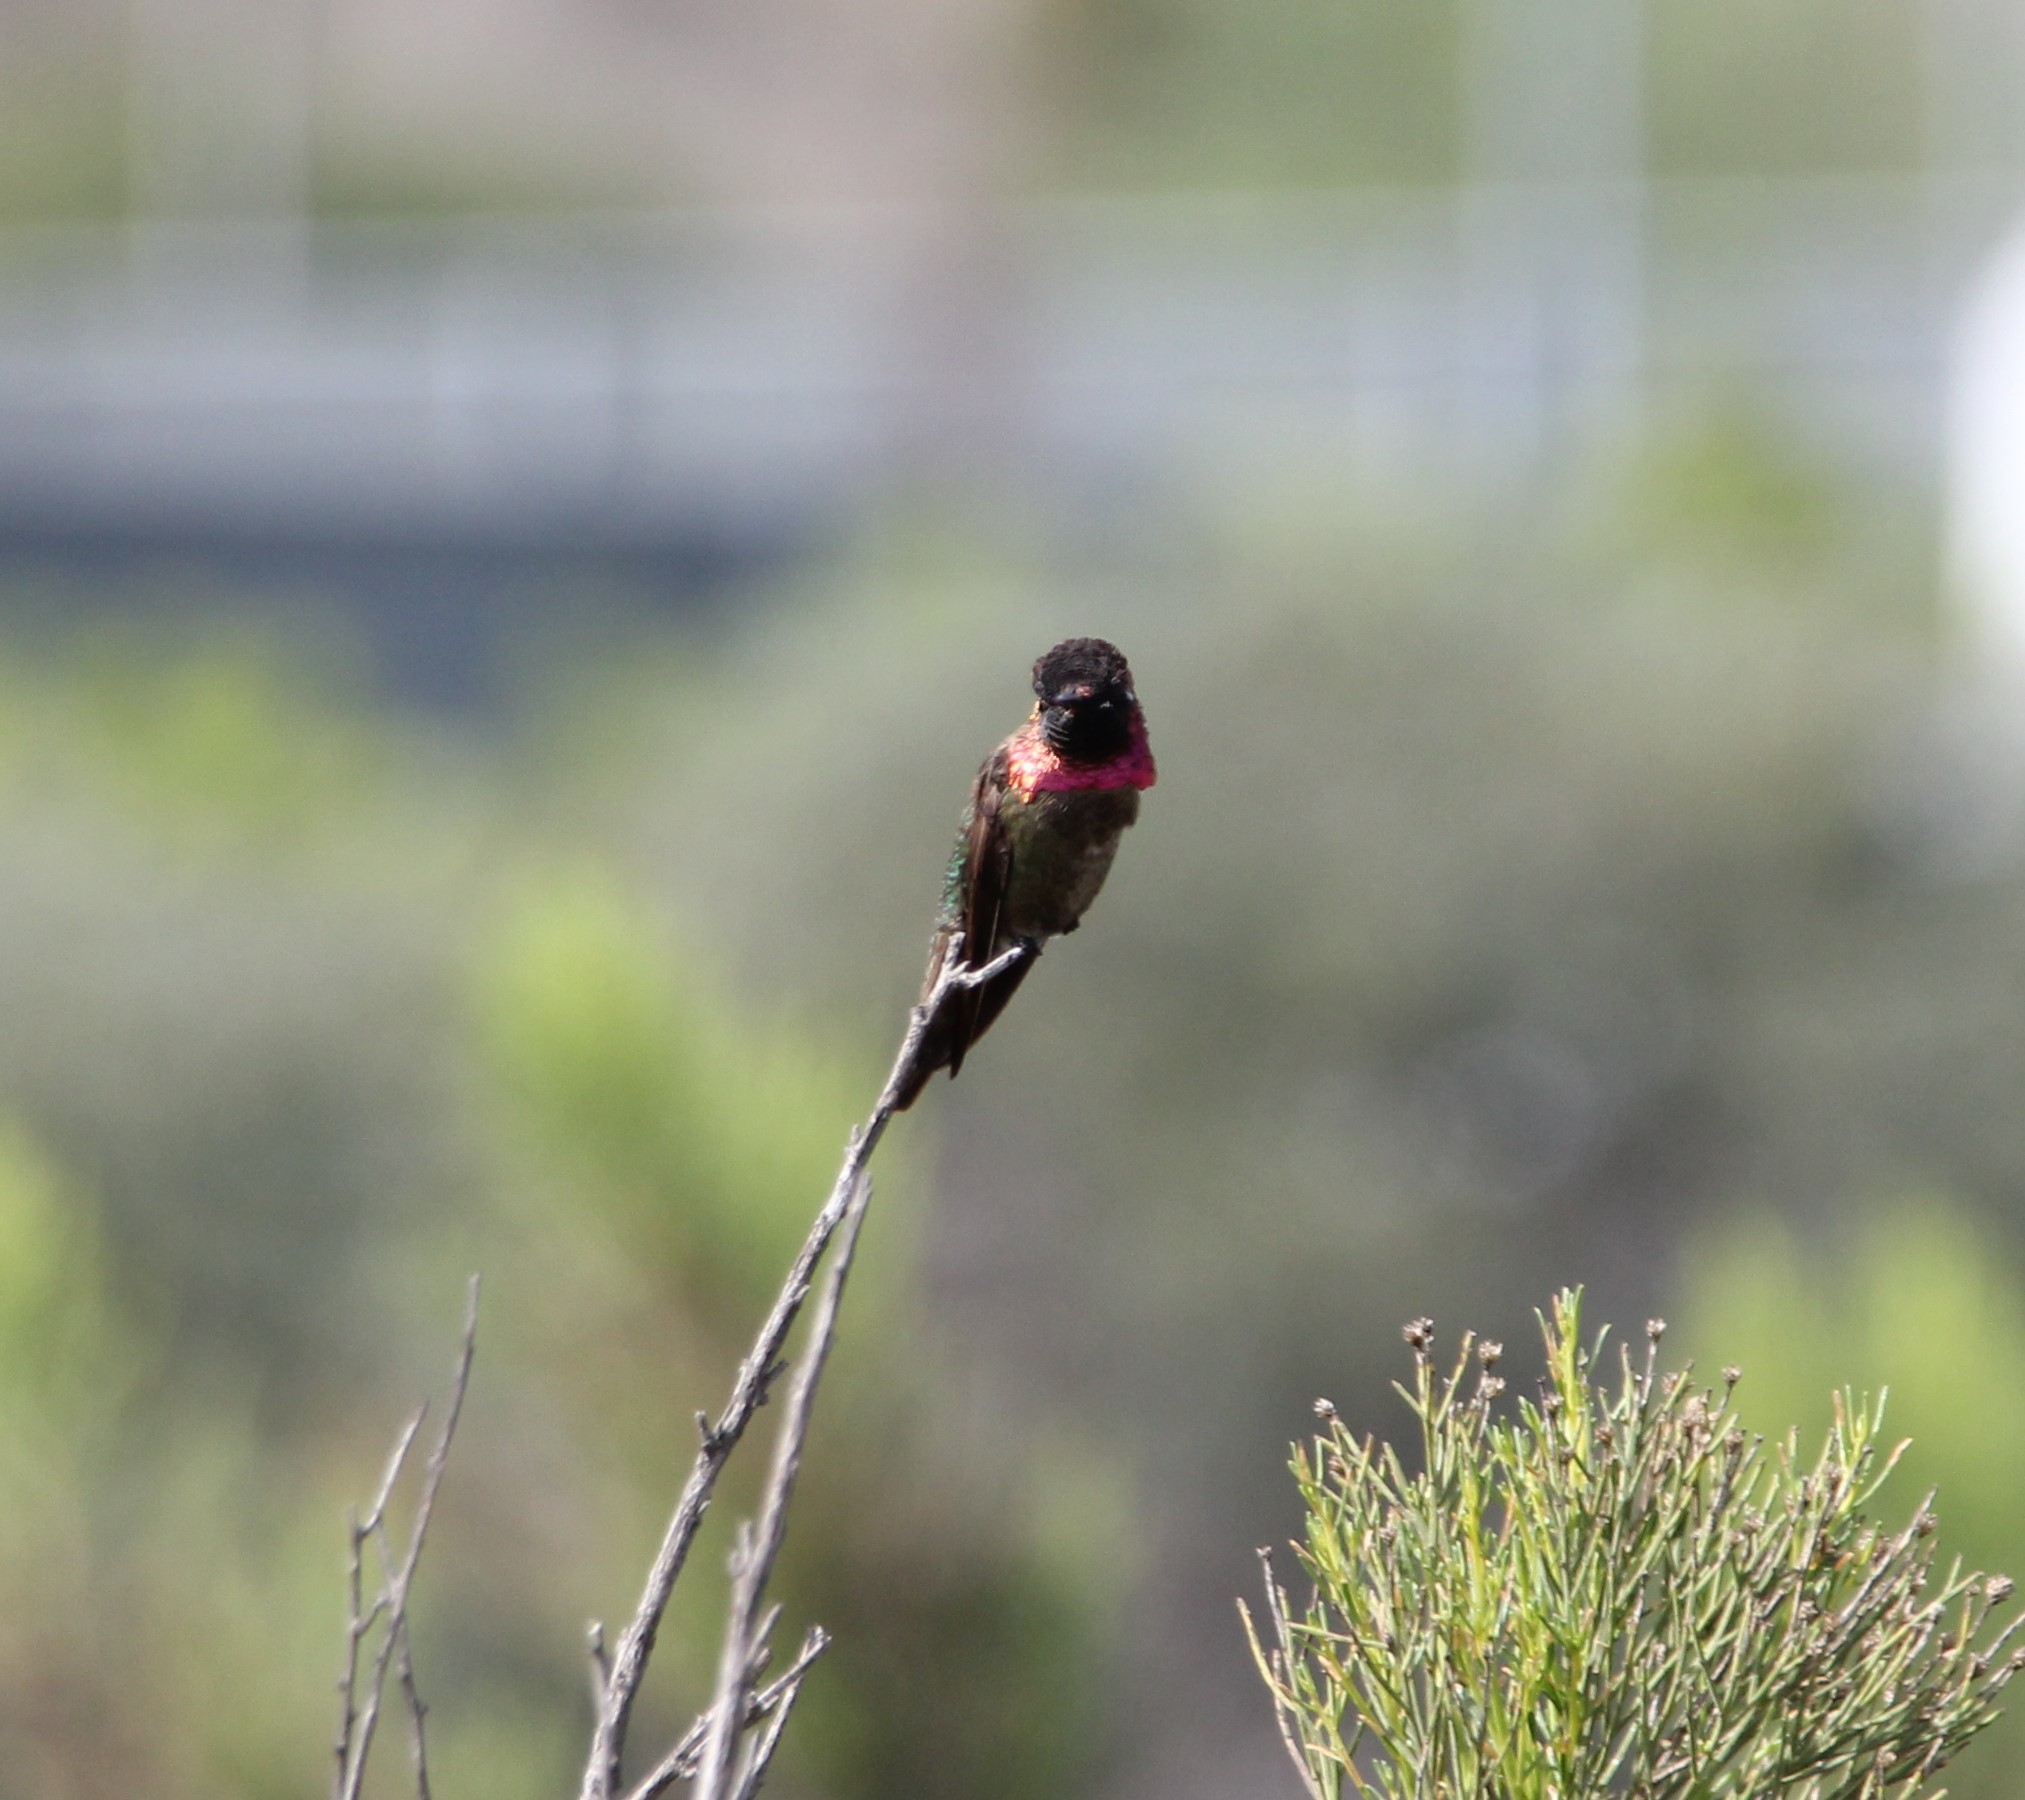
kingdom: Animalia
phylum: Chordata
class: Aves
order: Apodiformes
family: Trochilidae
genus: Calypte
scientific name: Calypte anna
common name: Anna's hummingbird
